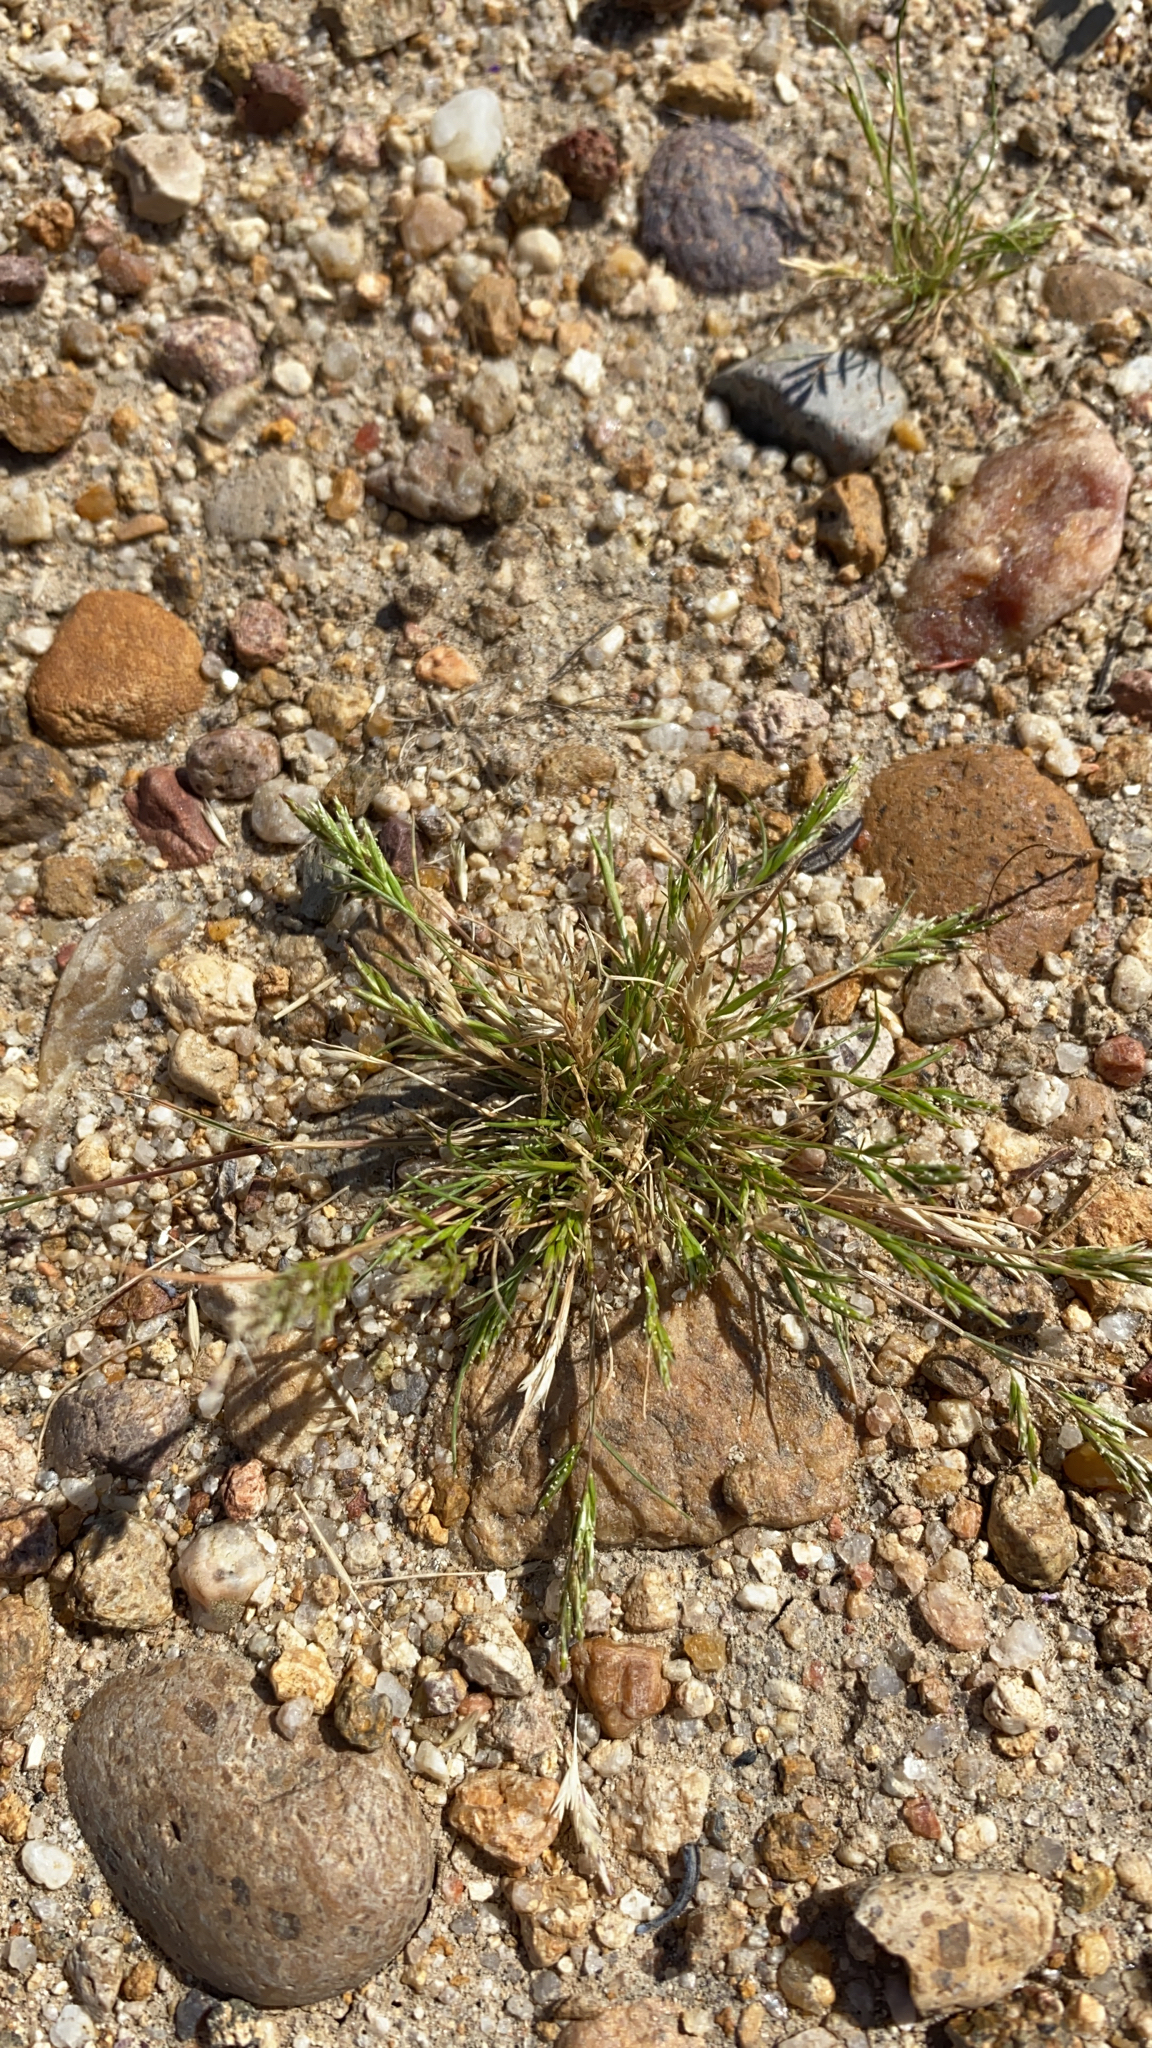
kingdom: Plantae
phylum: Tracheophyta
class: Liliopsida
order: Poales
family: Poaceae
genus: Schismus
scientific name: Schismus barbatus
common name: Kelch-grass
